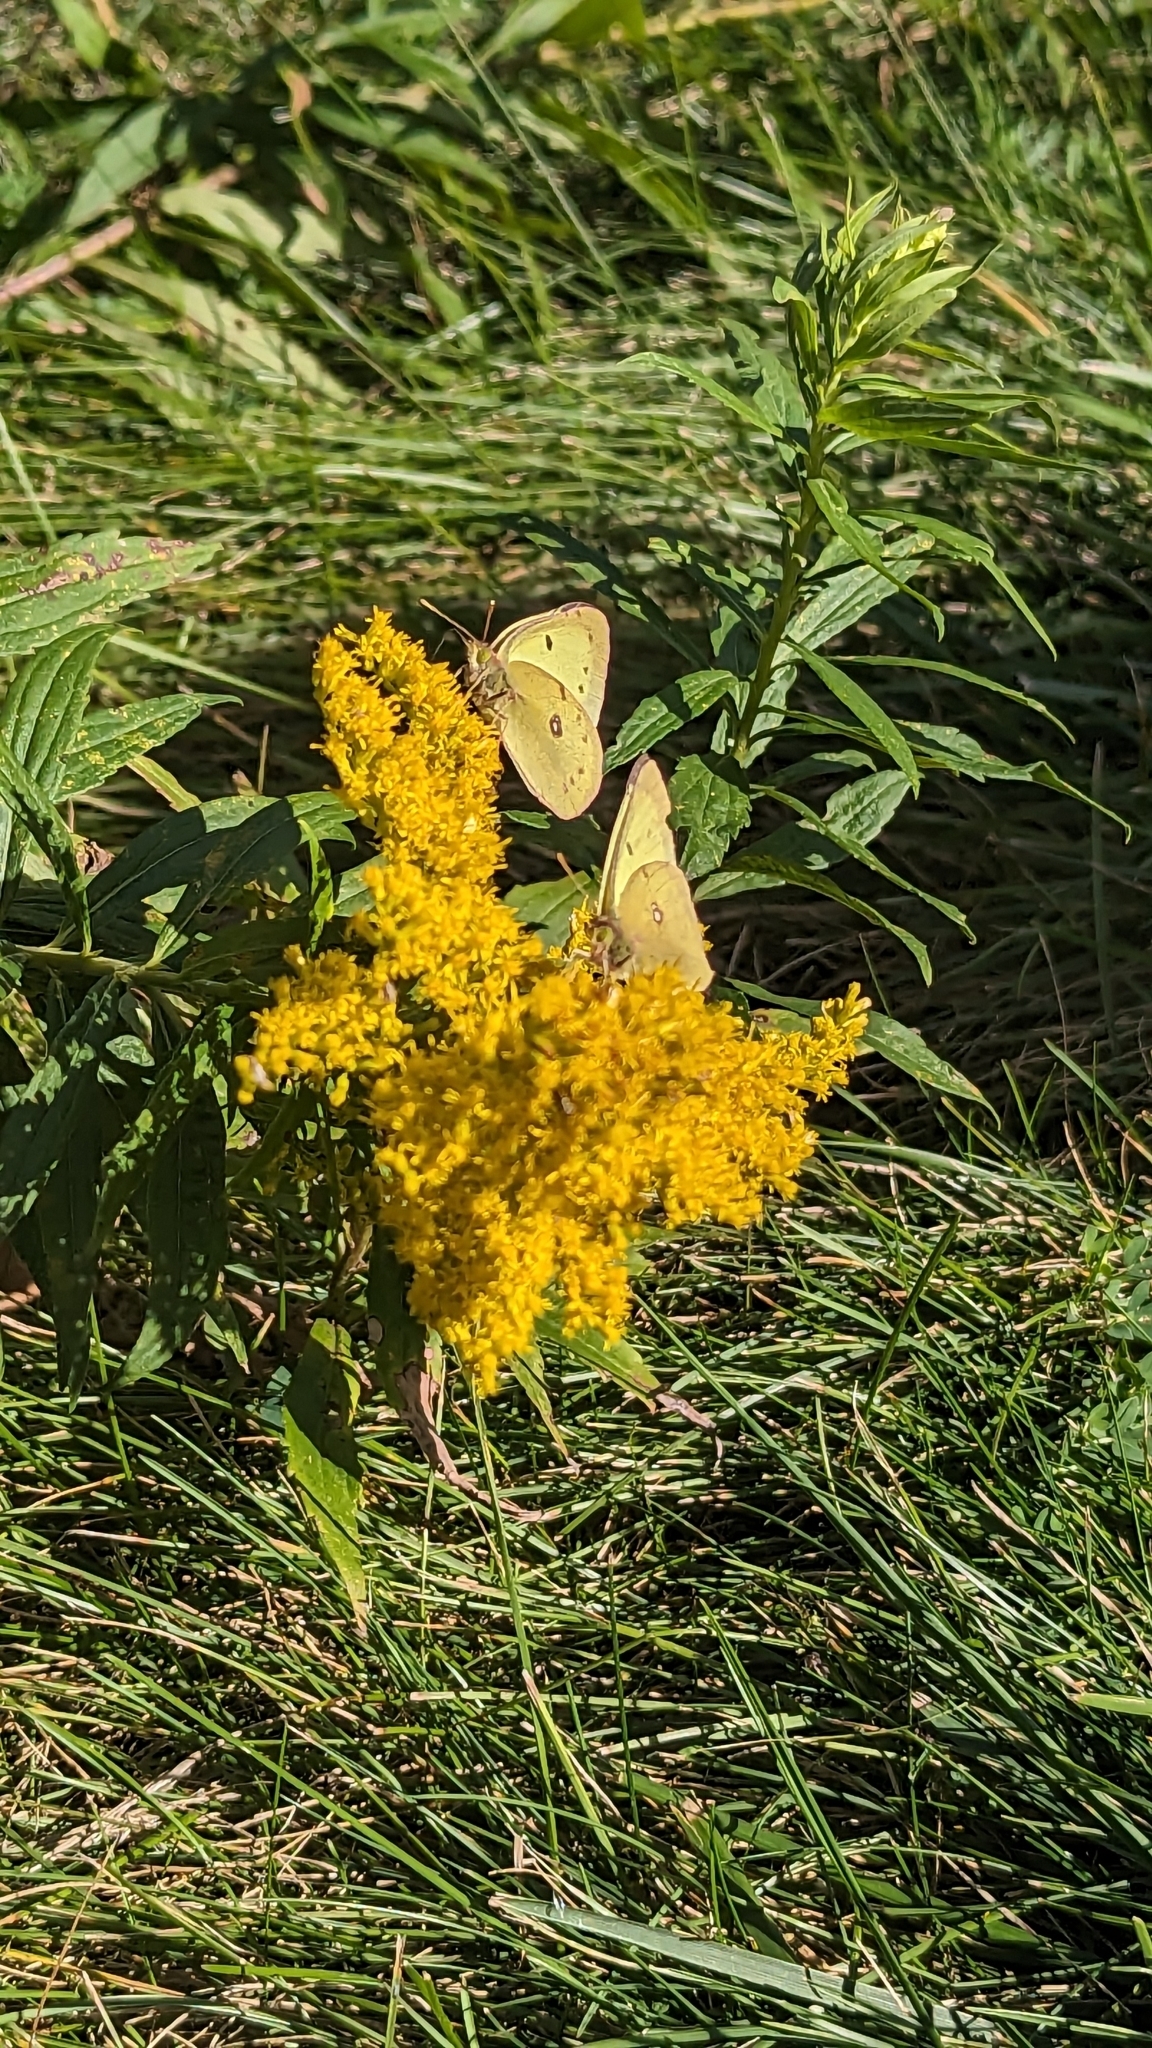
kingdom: Animalia
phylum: Arthropoda
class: Insecta
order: Lepidoptera
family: Pieridae
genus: Colias
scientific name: Colias philodice
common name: Clouded sulphur
